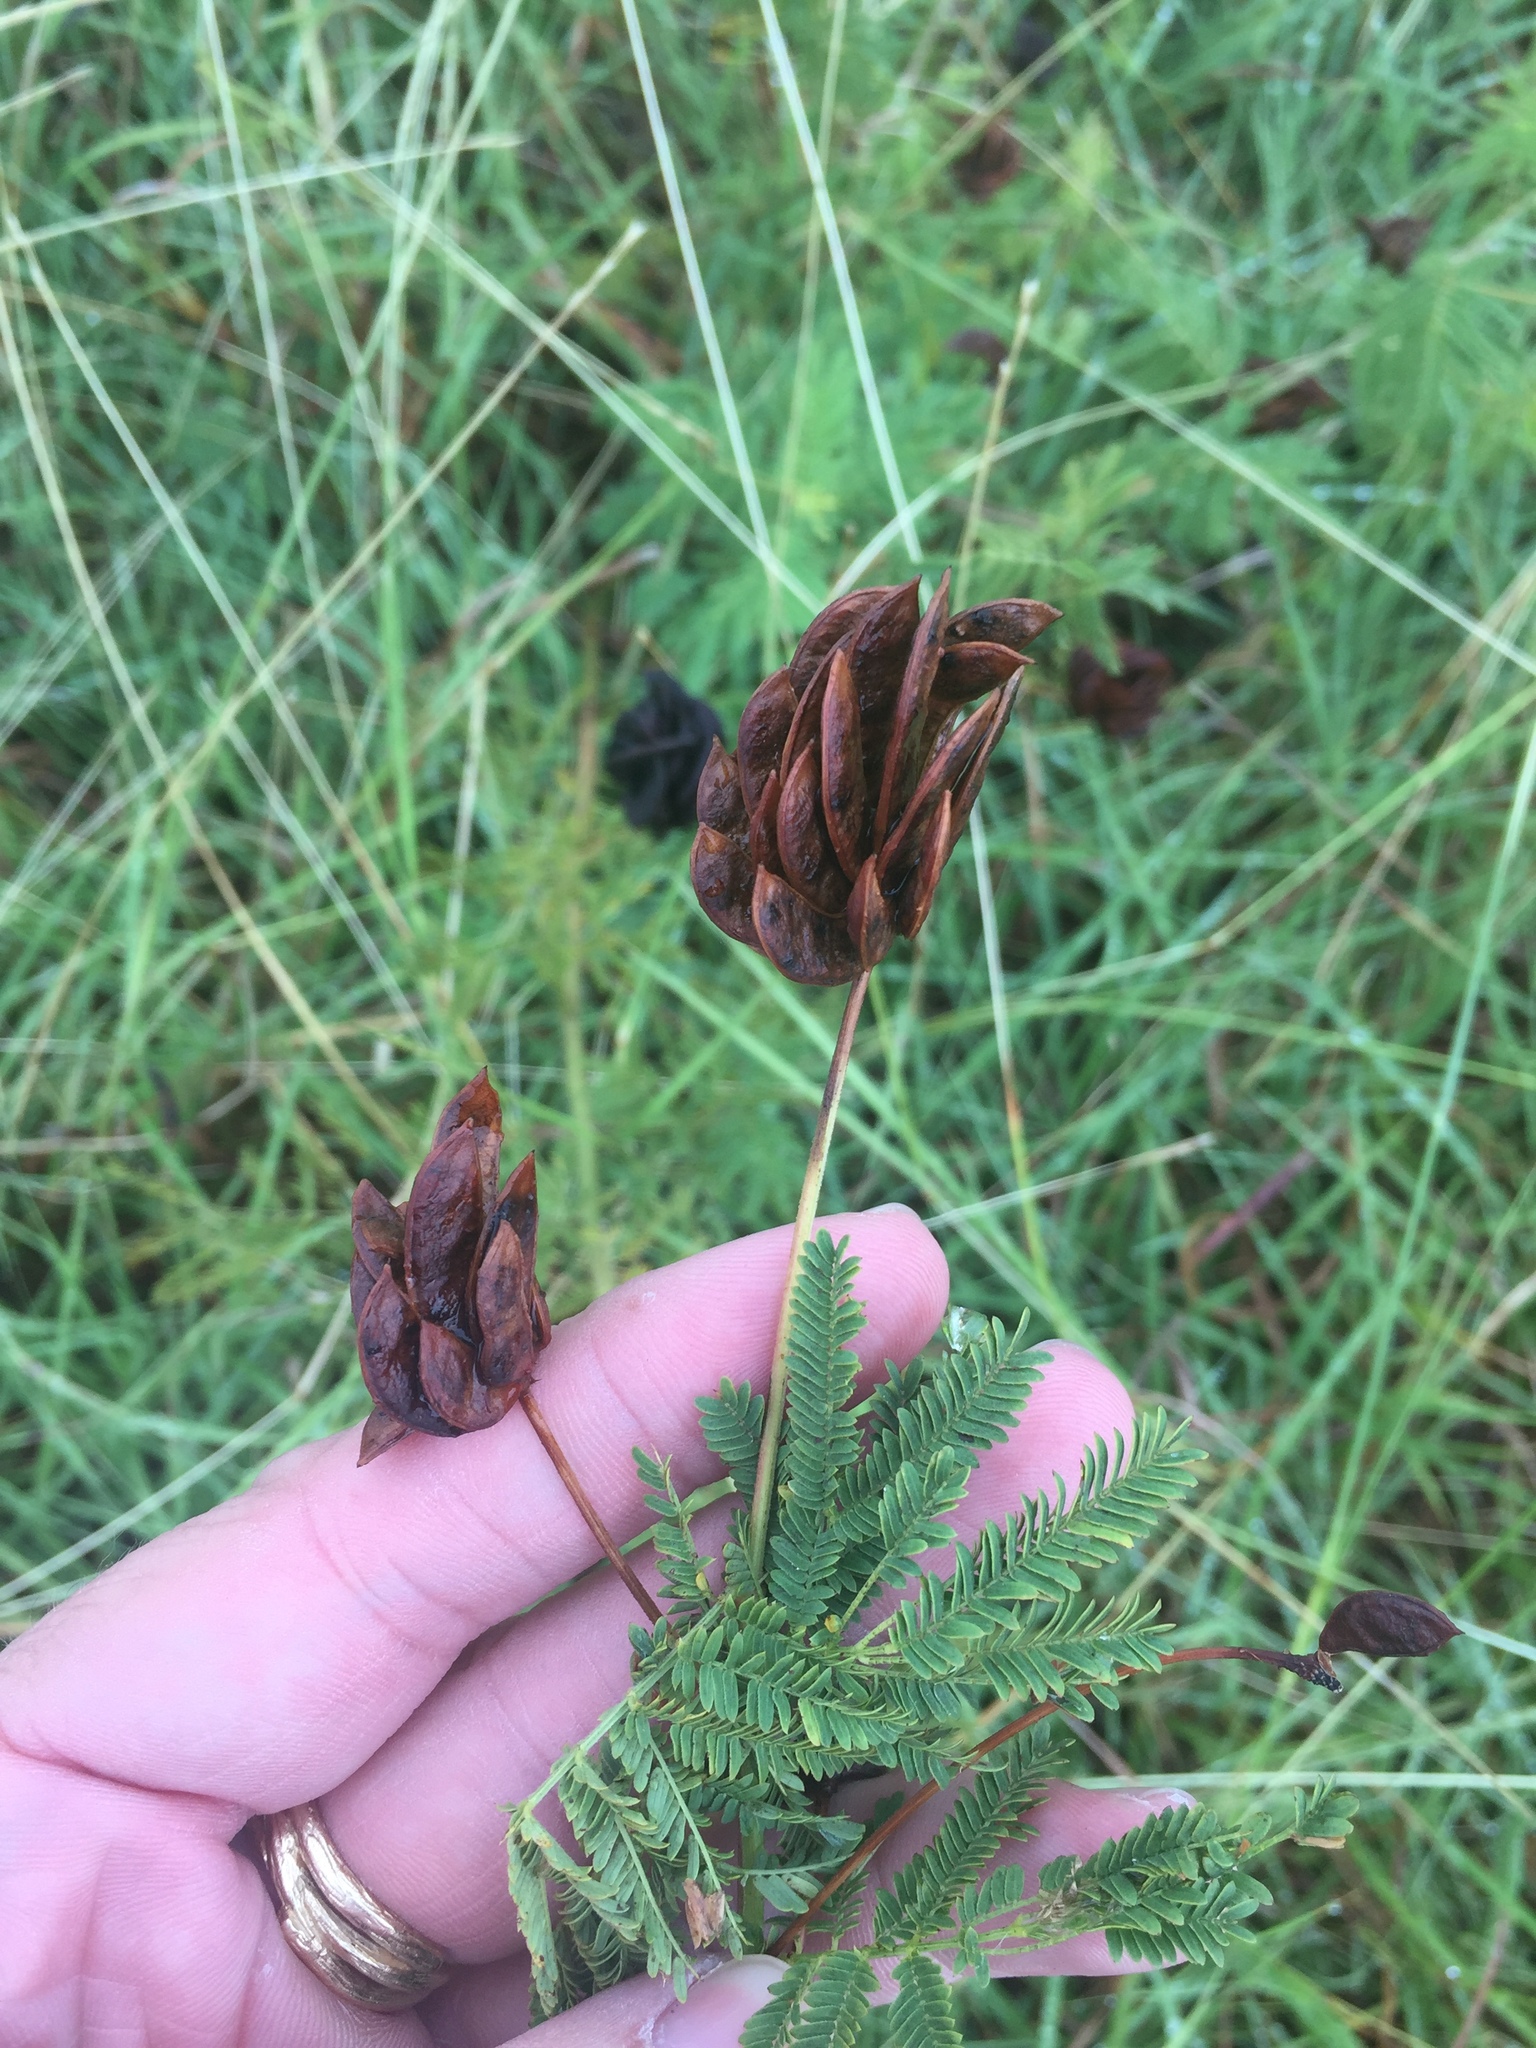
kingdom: Plantae
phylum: Tracheophyta
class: Magnoliopsida
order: Fabales
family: Fabaceae
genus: Desmanthus
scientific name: Desmanthus illinoensis
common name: Illinois bundle-flower
